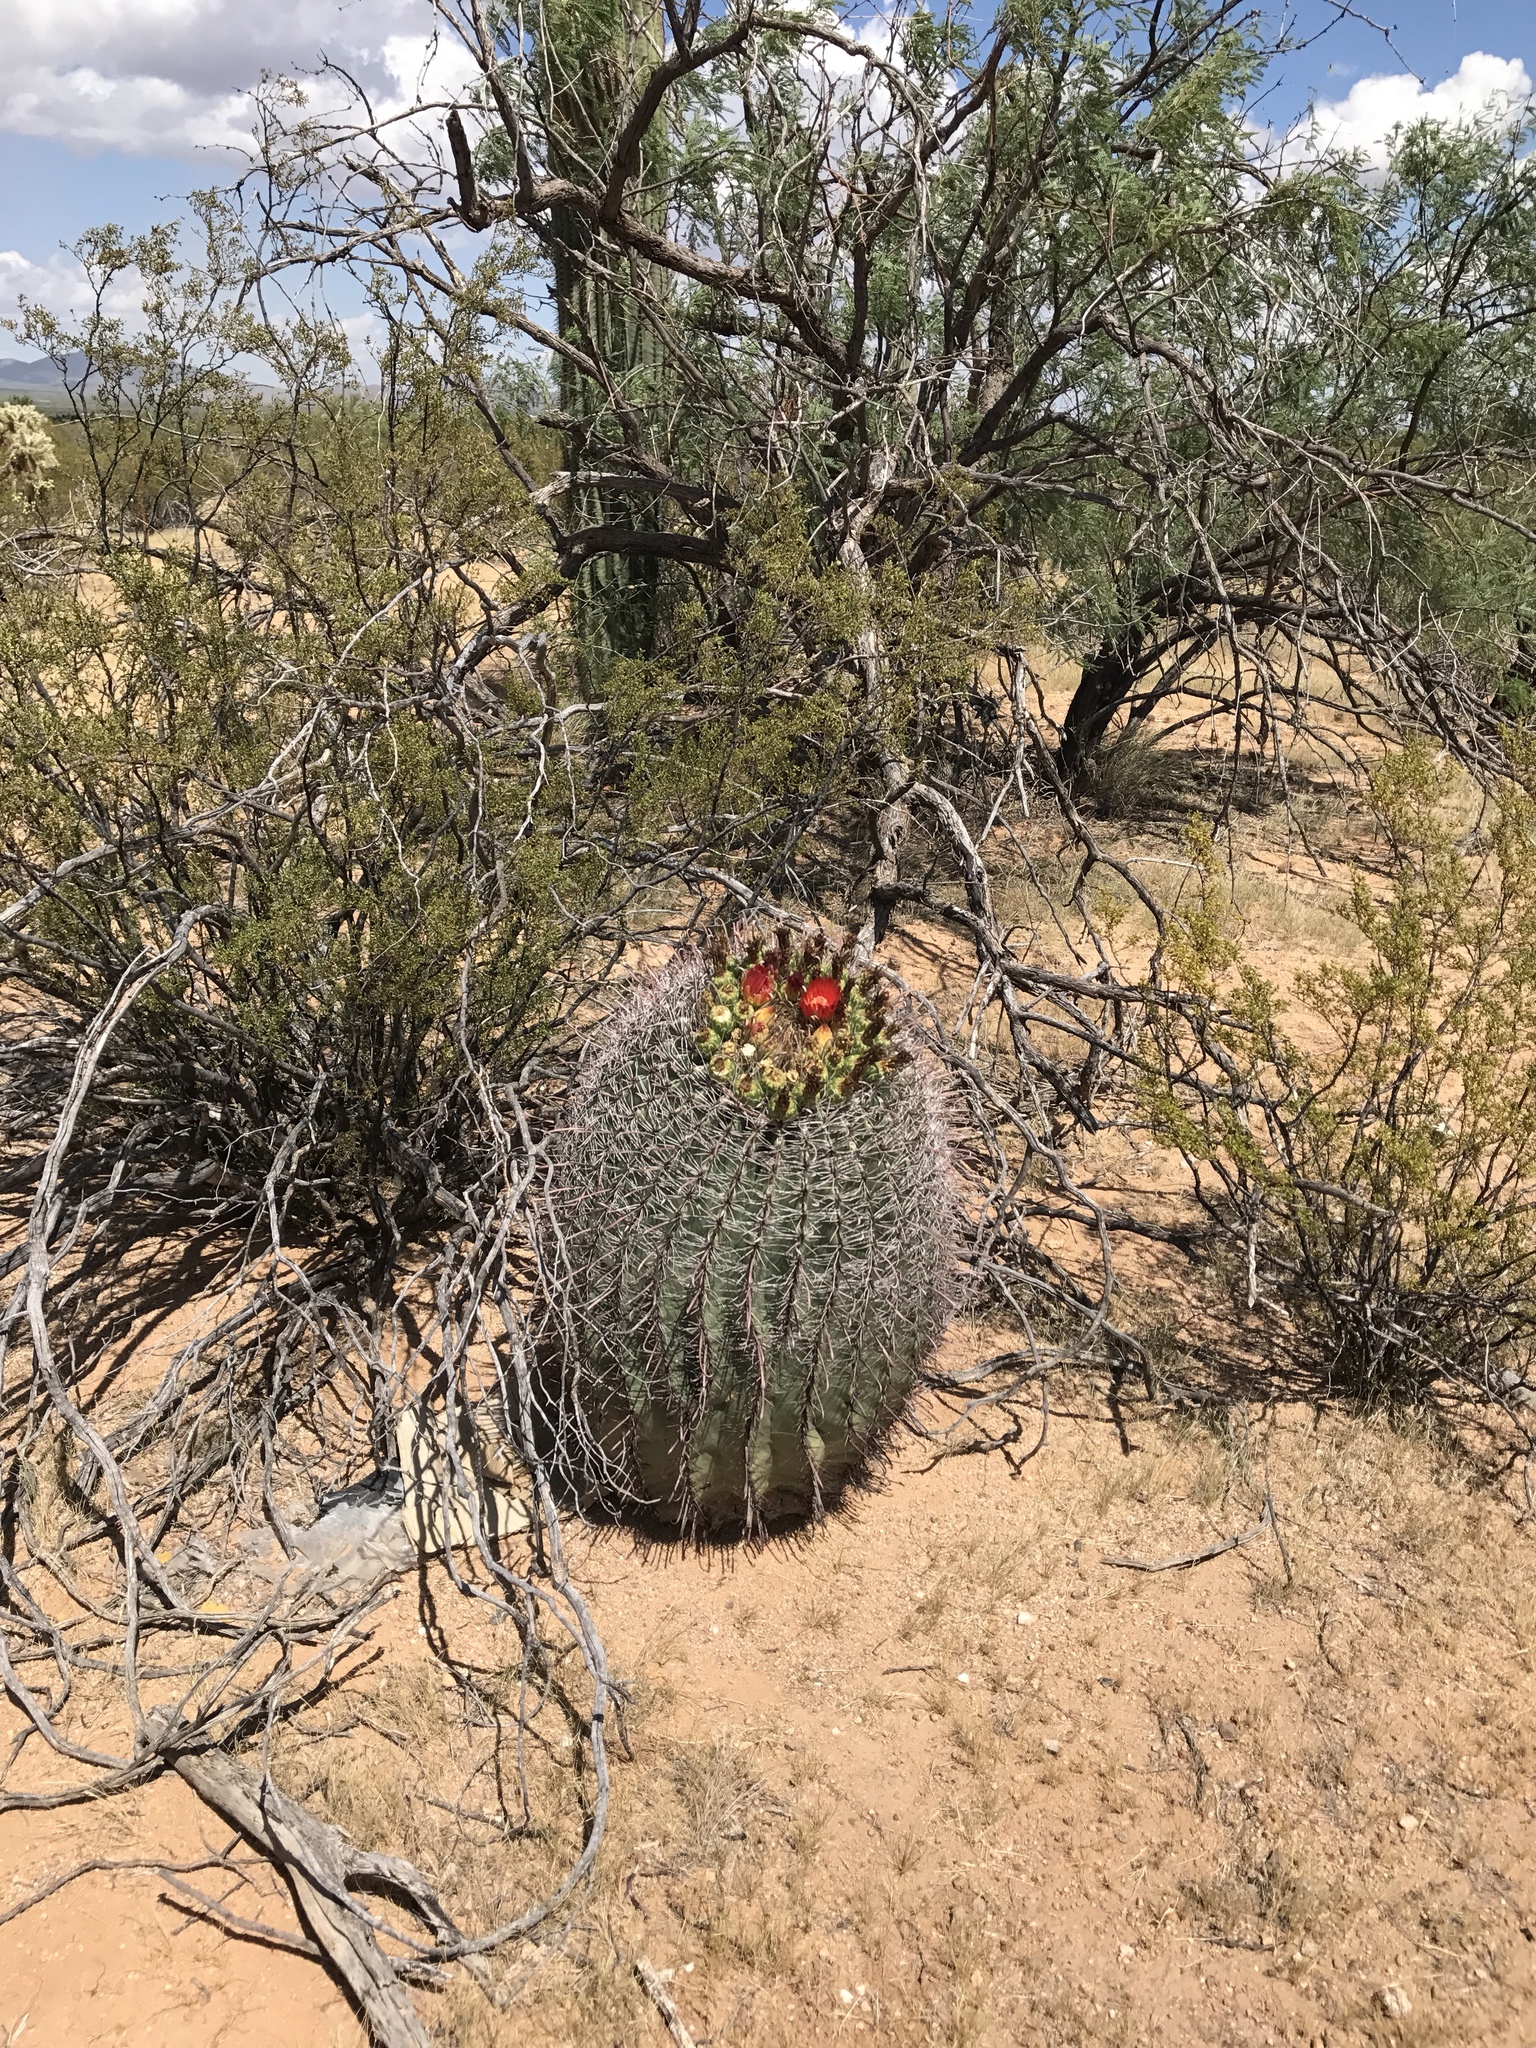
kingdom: Plantae
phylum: Tracheophyta
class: Magnoliopsida
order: Caryophyllales
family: Cactaceae
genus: Ferocactus
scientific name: Ferocactus wislizeni
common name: Candy barrel cactus
